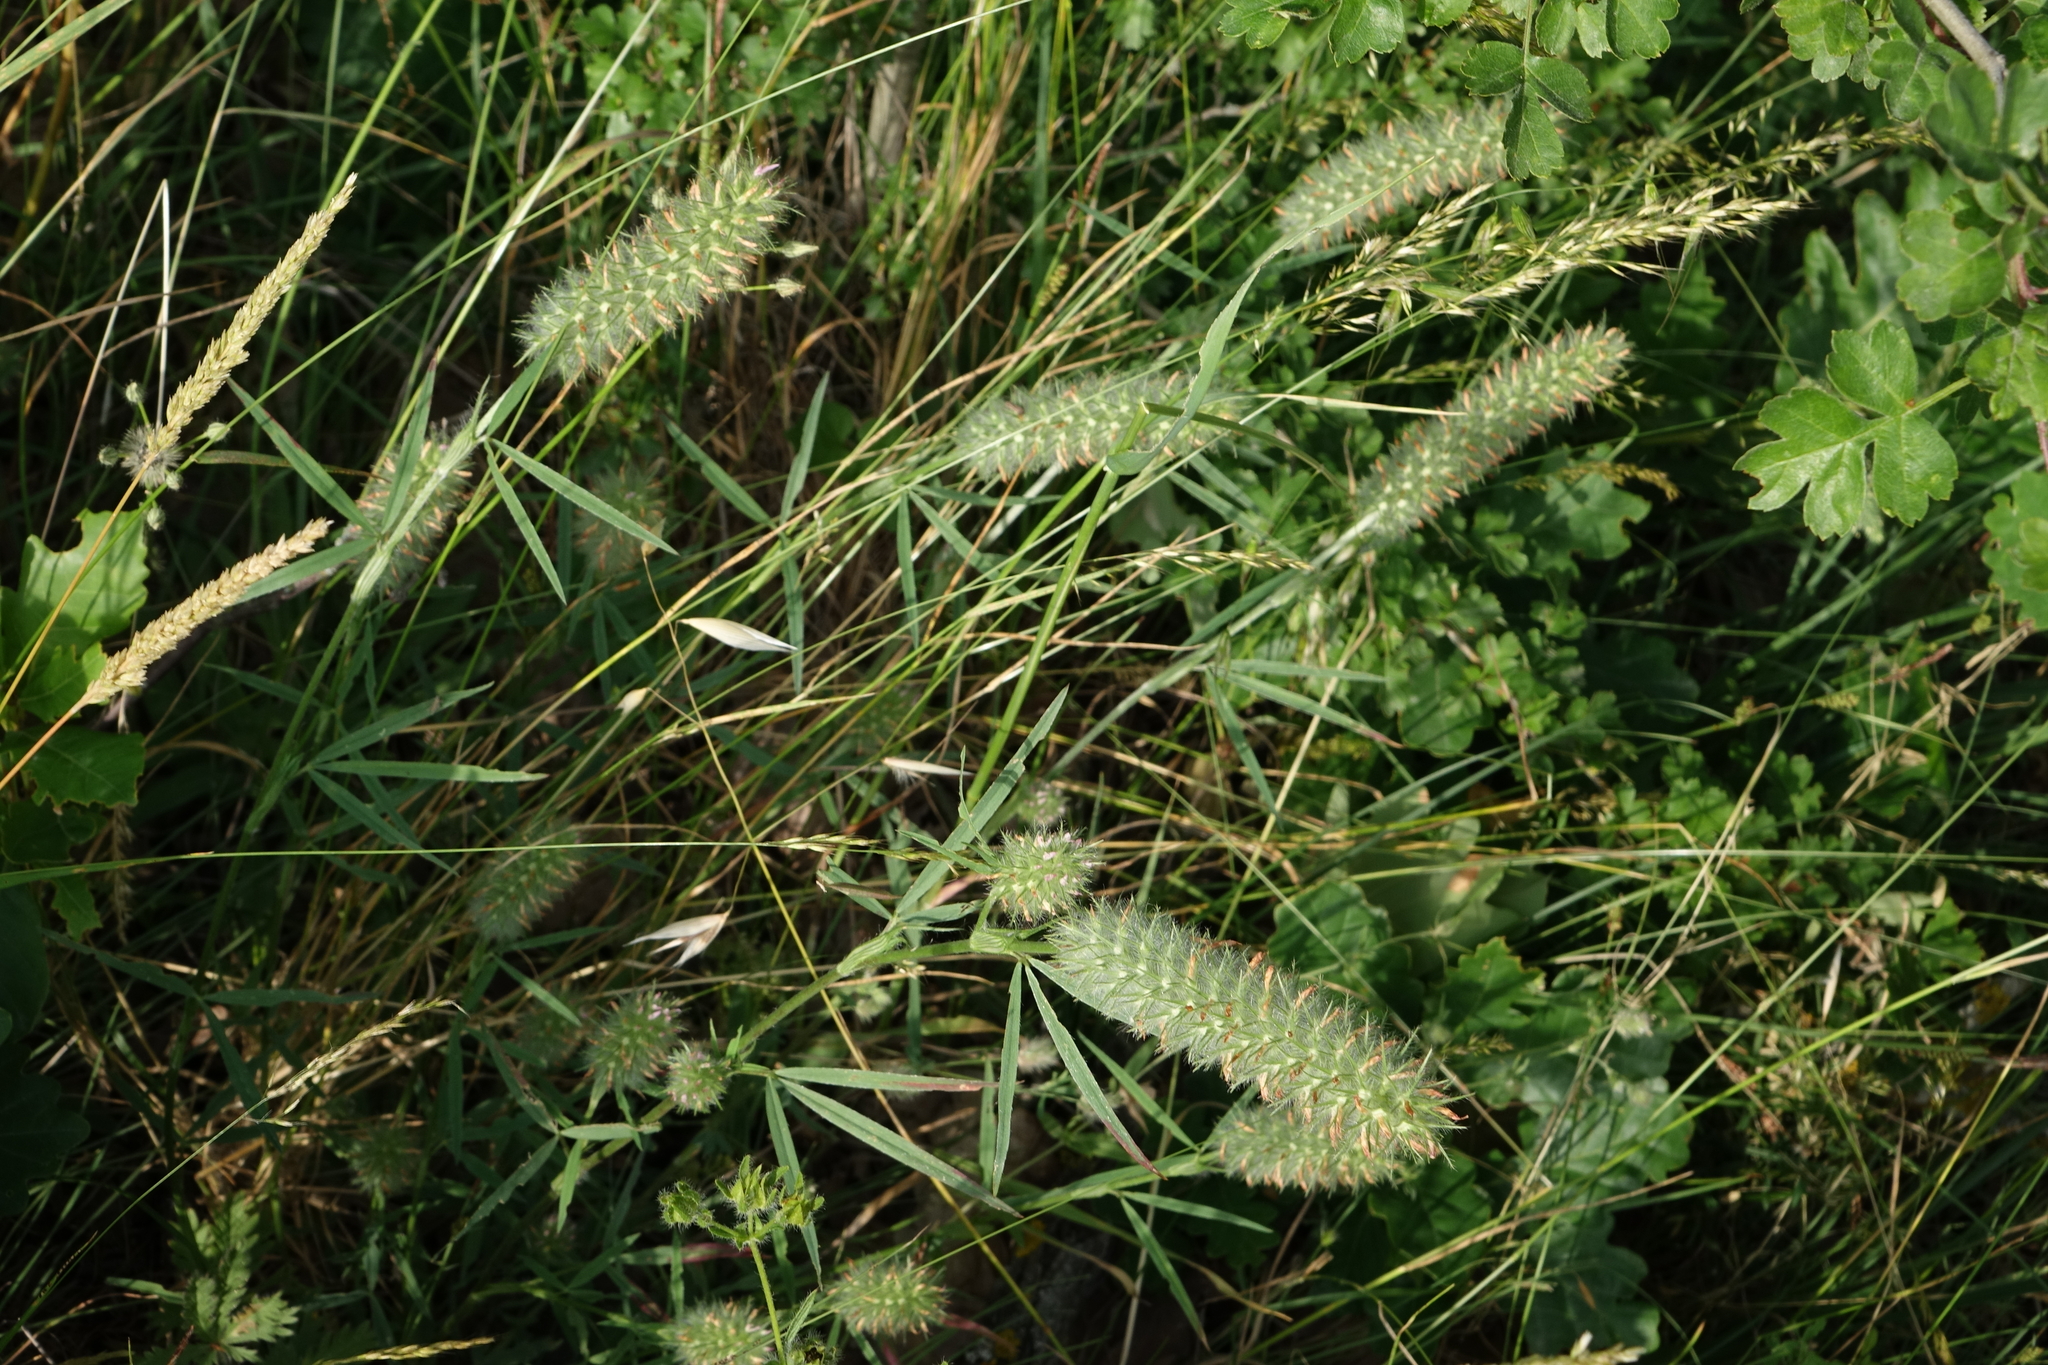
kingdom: Plantae
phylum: Tracheophyta
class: Magnoliopsida
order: Fabales
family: Fabaceae
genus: Trifolium
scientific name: Trifolium angustifolium
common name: Narrow clover
